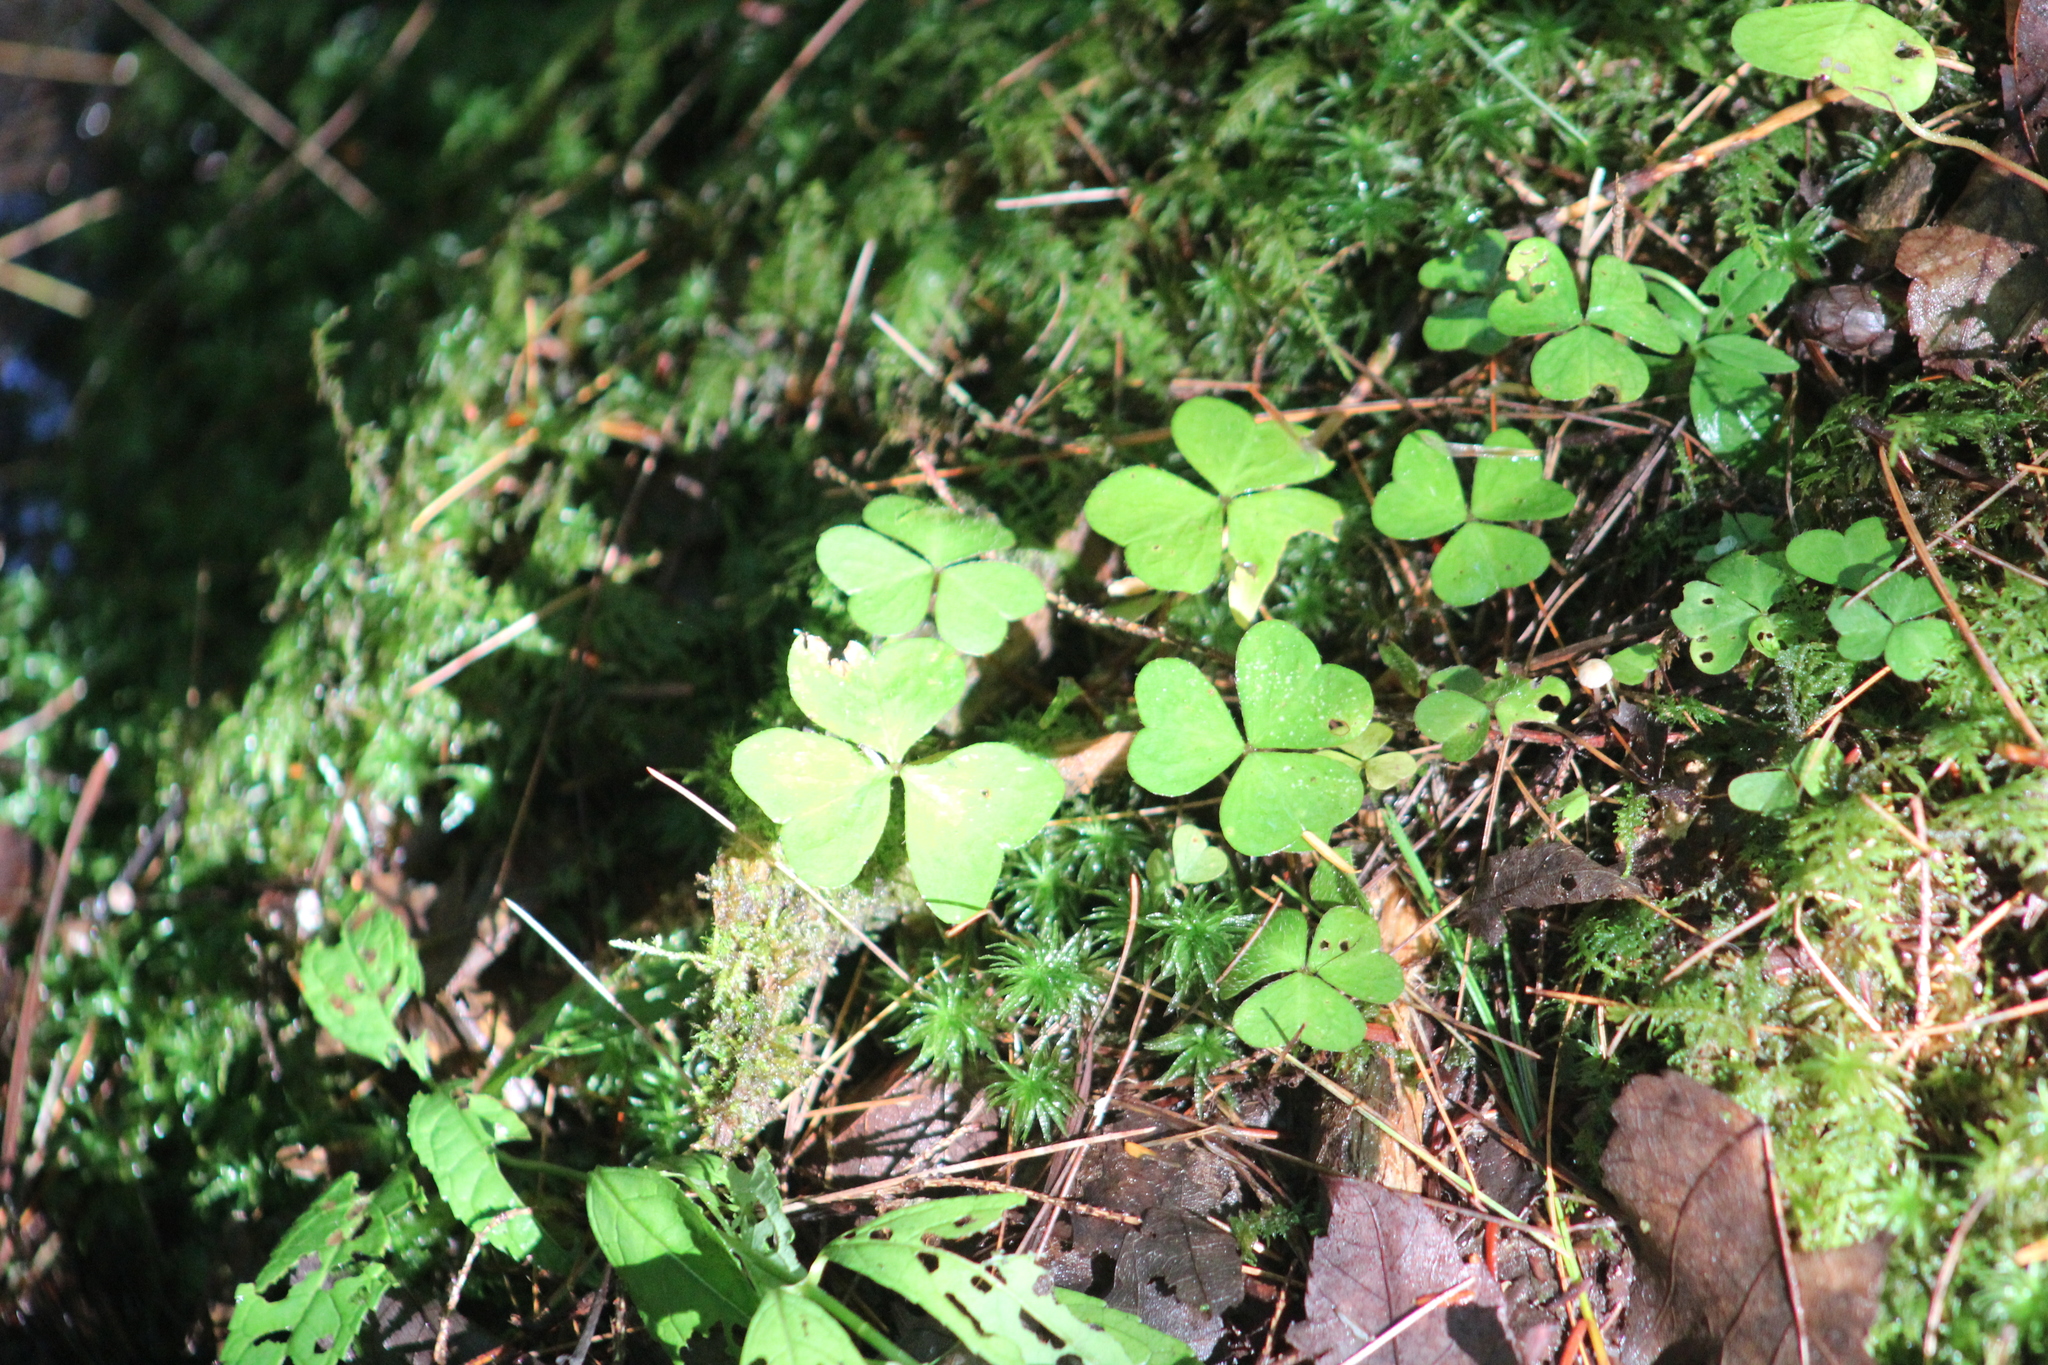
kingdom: Plantae
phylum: Tracheophyta
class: Magnoliopsida
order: Oxalidales
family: Oxalidaceae
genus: Oxalis
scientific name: Oxalis montana
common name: American wood-sorrel
